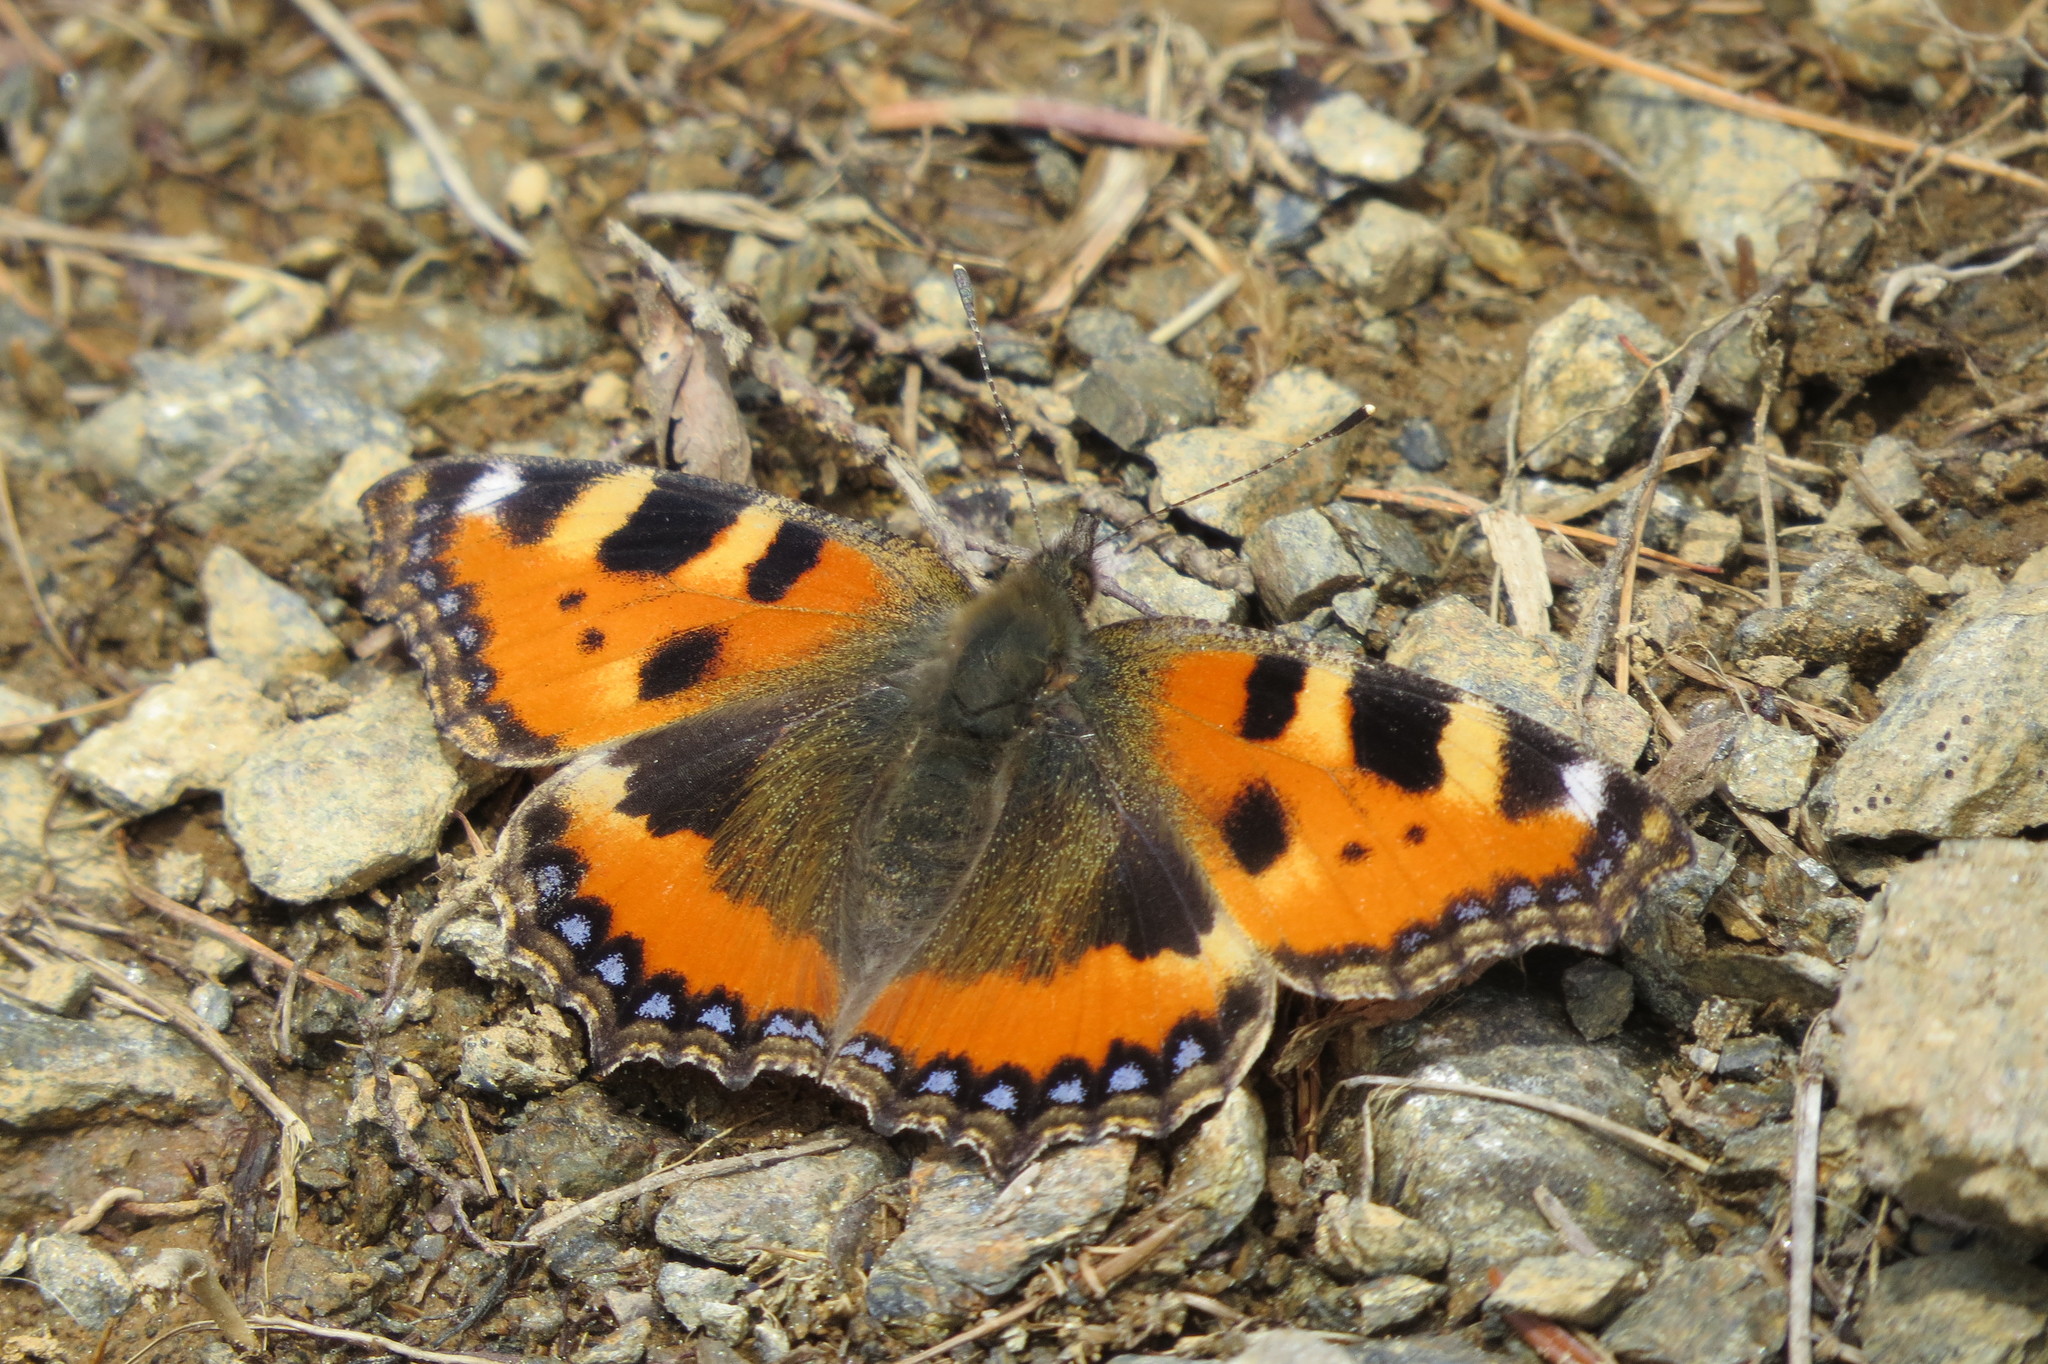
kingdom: Animalia
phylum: Arthropoda
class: Insecta
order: Lepidoptera
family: Nymphalidae
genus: Aglais
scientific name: Aglais urticae
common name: Small tortoiseshell
